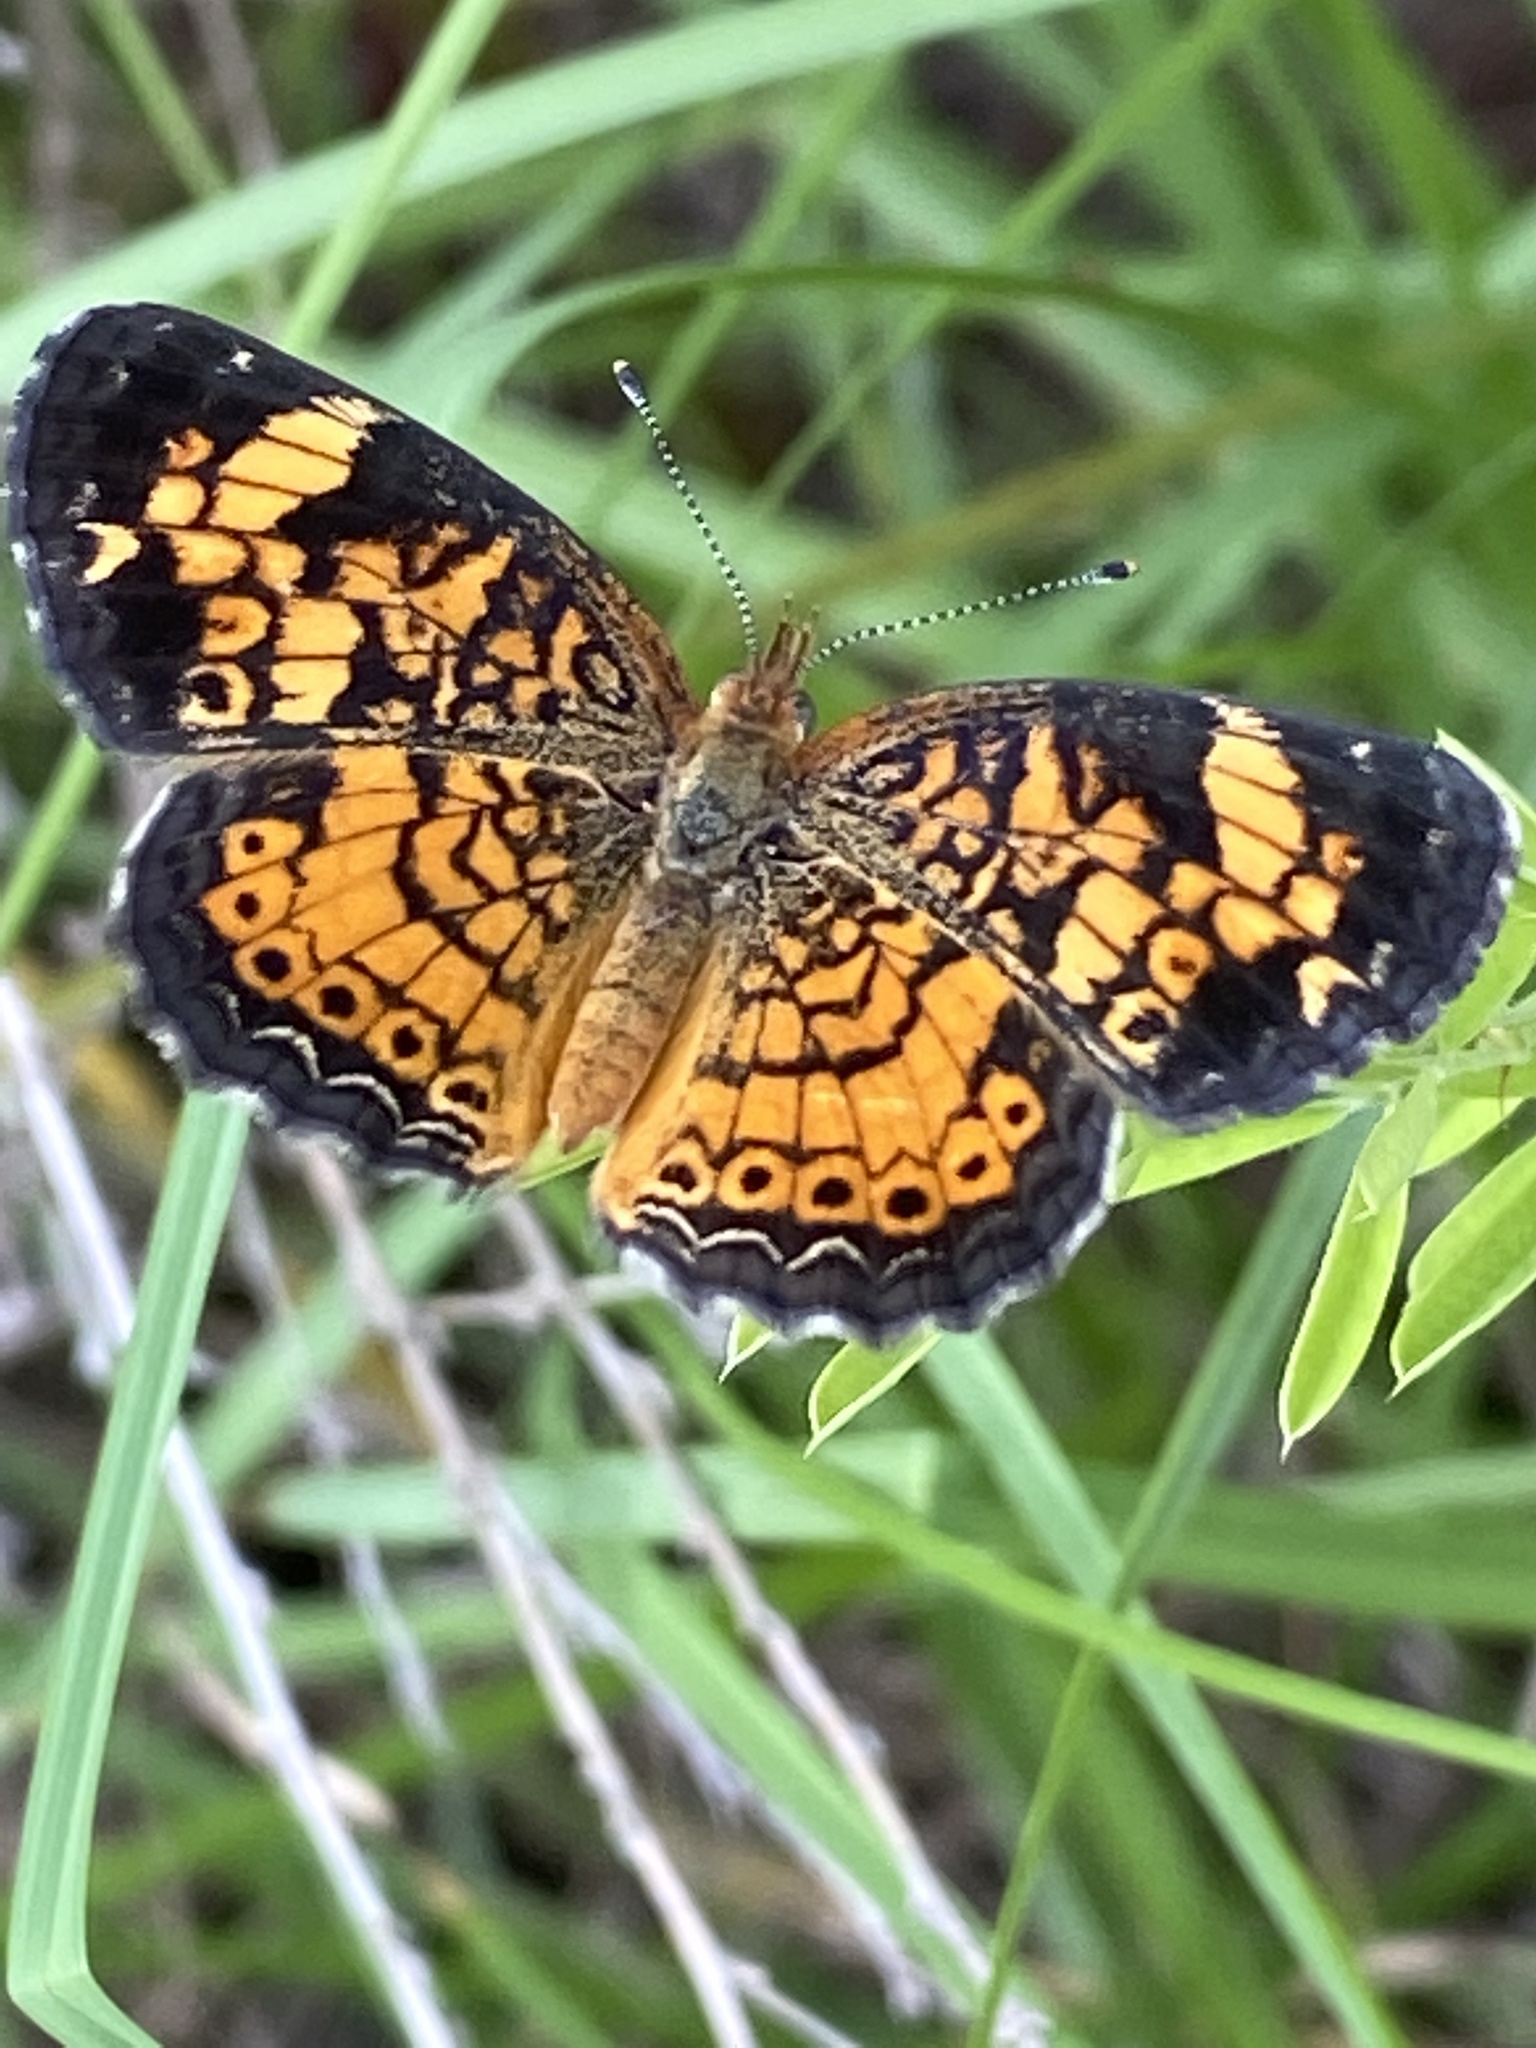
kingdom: Animalia
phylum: Arthropoda
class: Insecta
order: Lepidoptera
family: Nymphalidae
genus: Phyciodes
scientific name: Phyciodes tharos
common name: Pearl crescent
